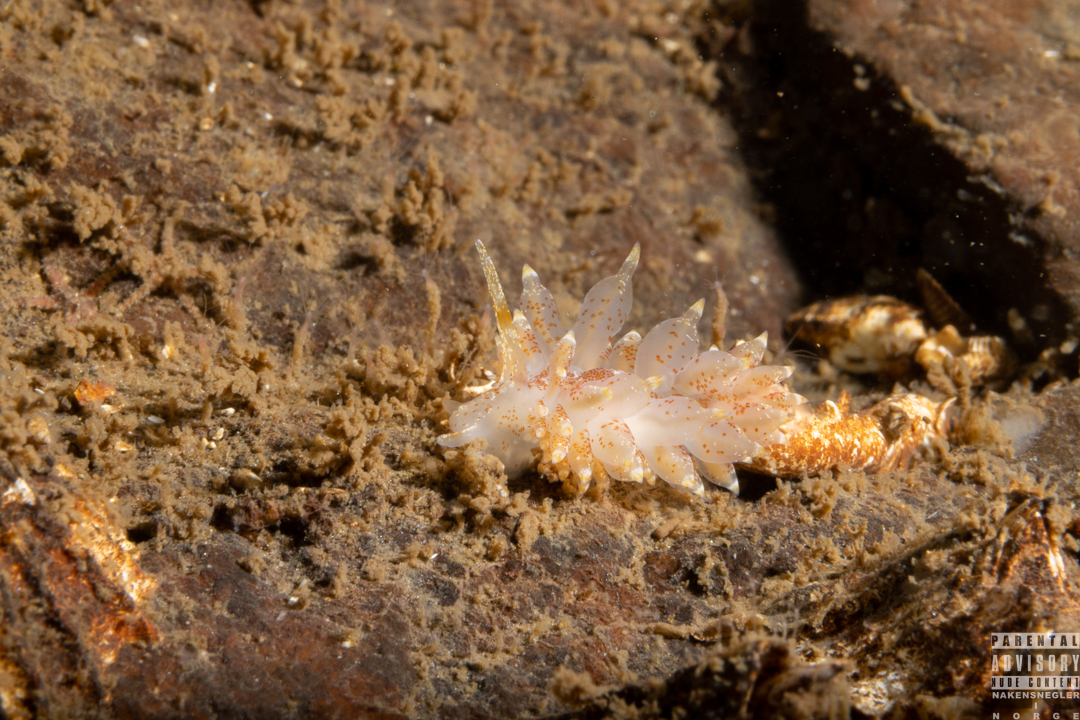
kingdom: Animalia
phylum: Mollusca
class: Gastropoda
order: Nudibranchia
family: Eubranchidae
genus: Amphorina
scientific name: Amphorina pallida
